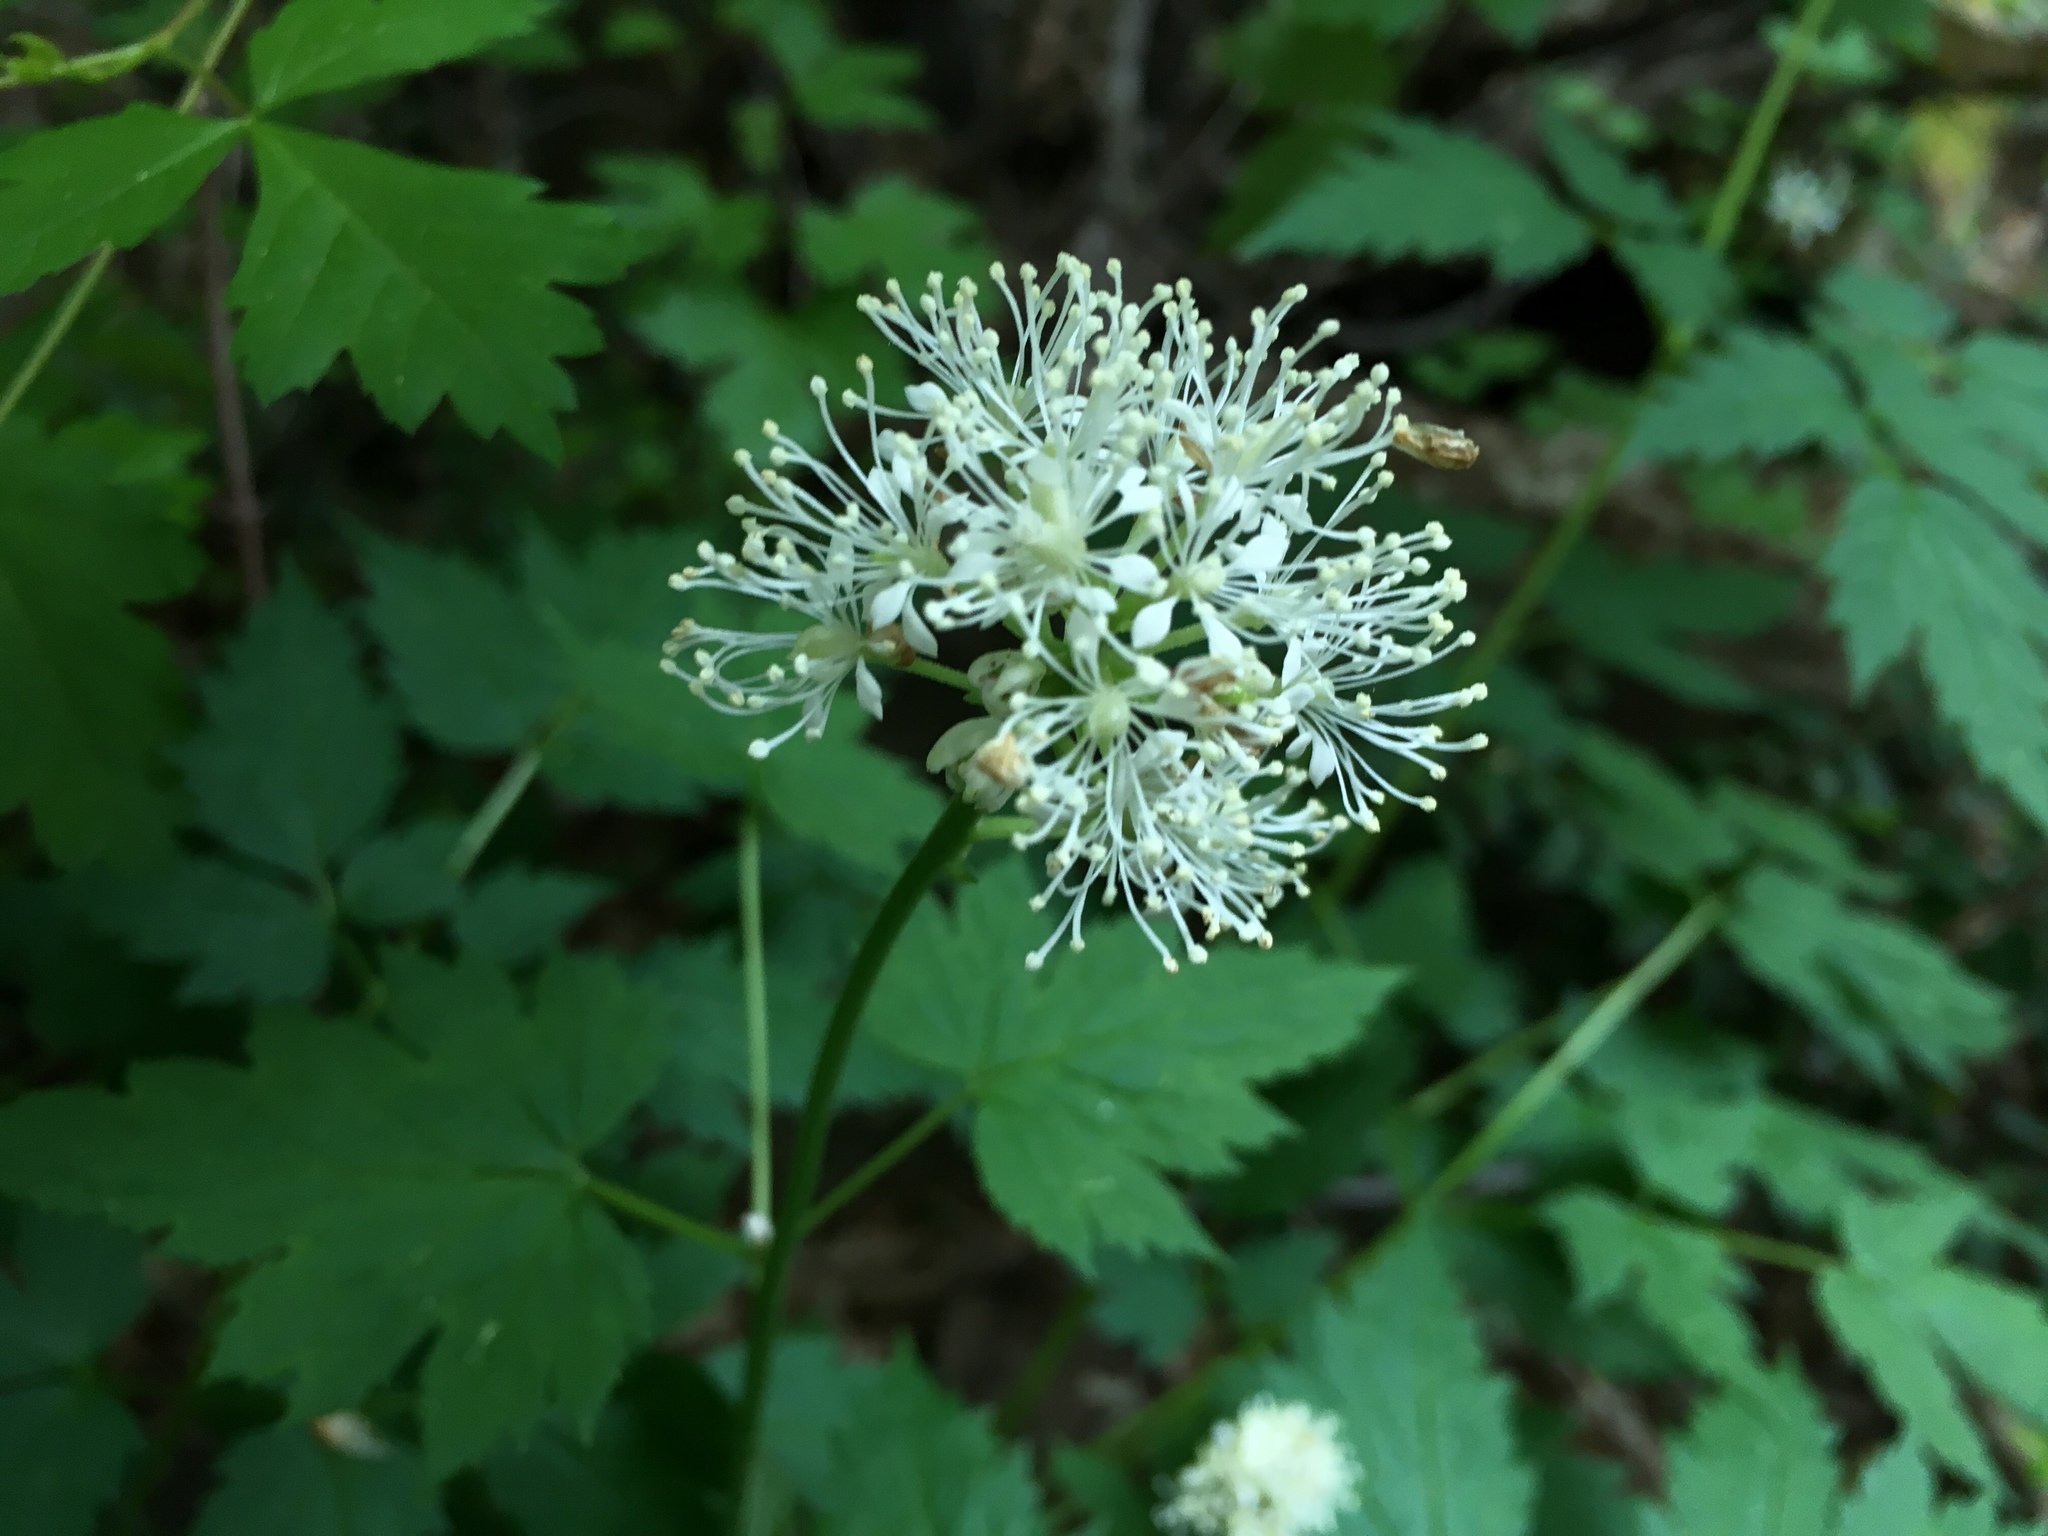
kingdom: Plantae
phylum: Tracheophyta
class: Magnoliopsida
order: Ranunculales
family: Ranunculaceae
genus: Actaea
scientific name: Actaea rubra
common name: Red baneberry
